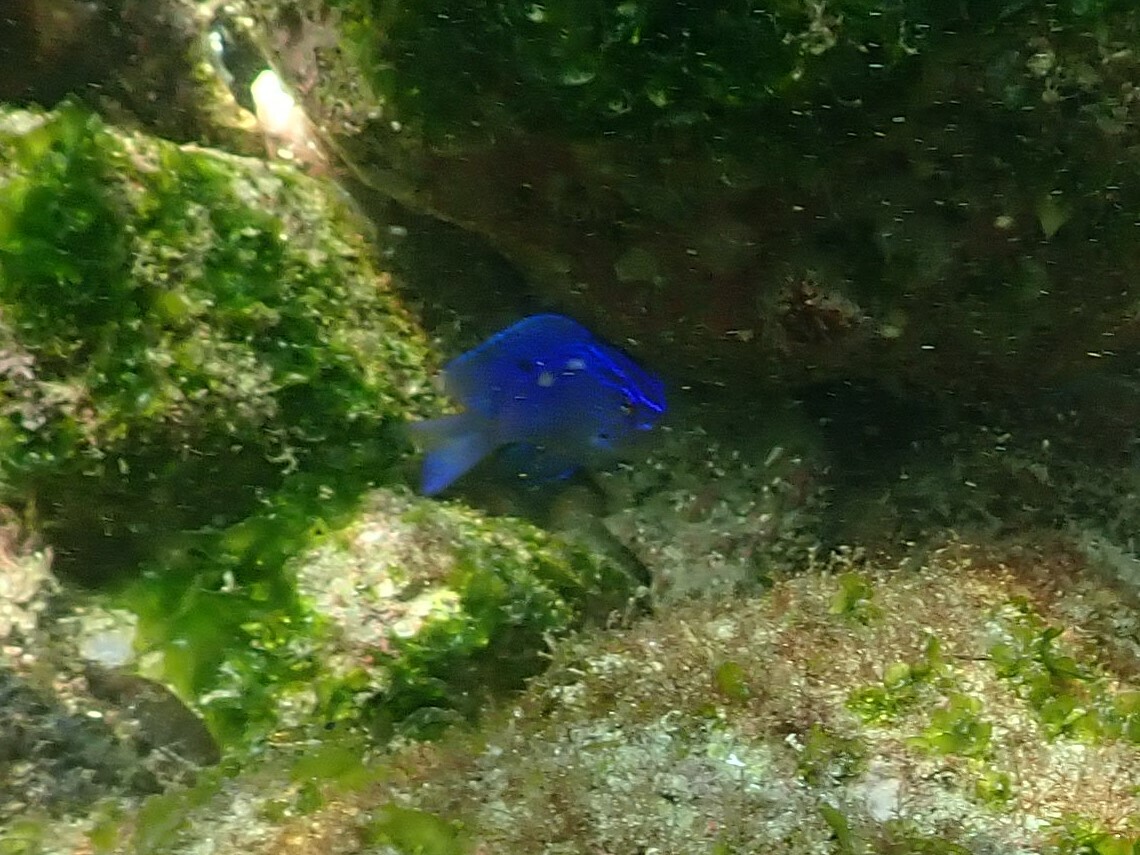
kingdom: Animalia
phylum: Chordata
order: Perciformes
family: Pomacentridae
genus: Stegastes
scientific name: Stegastes acapulcoensis
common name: Acapulco damselfish
